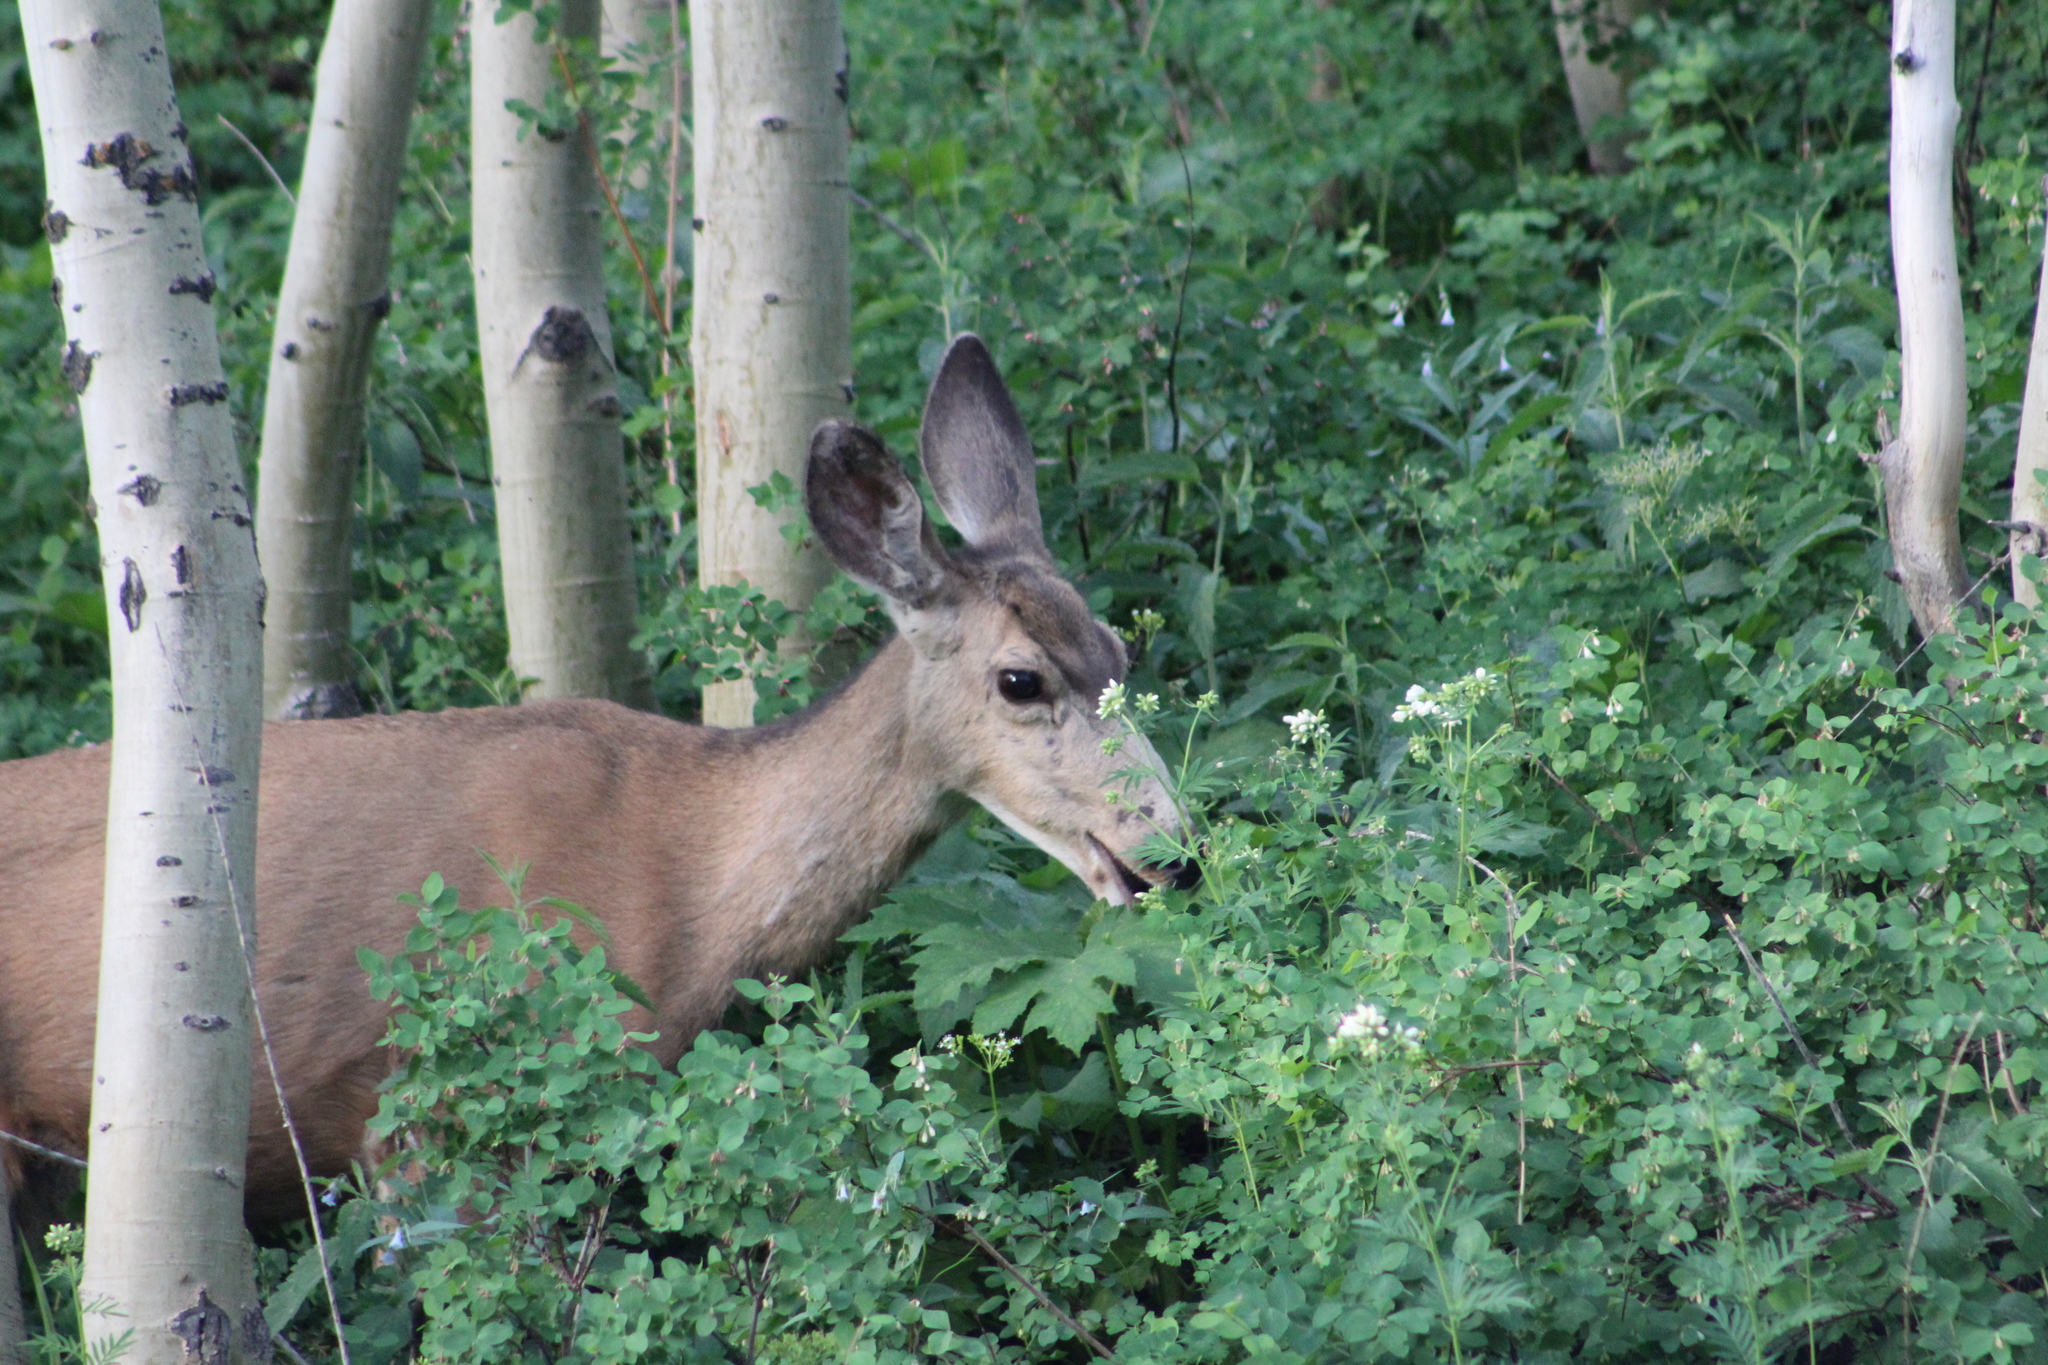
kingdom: Animalia
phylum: Chordata
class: Mammalia
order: Artiodactyla
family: Cervidae
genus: Odocoileus
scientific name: Odocoileus hemionus
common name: Mule deer
